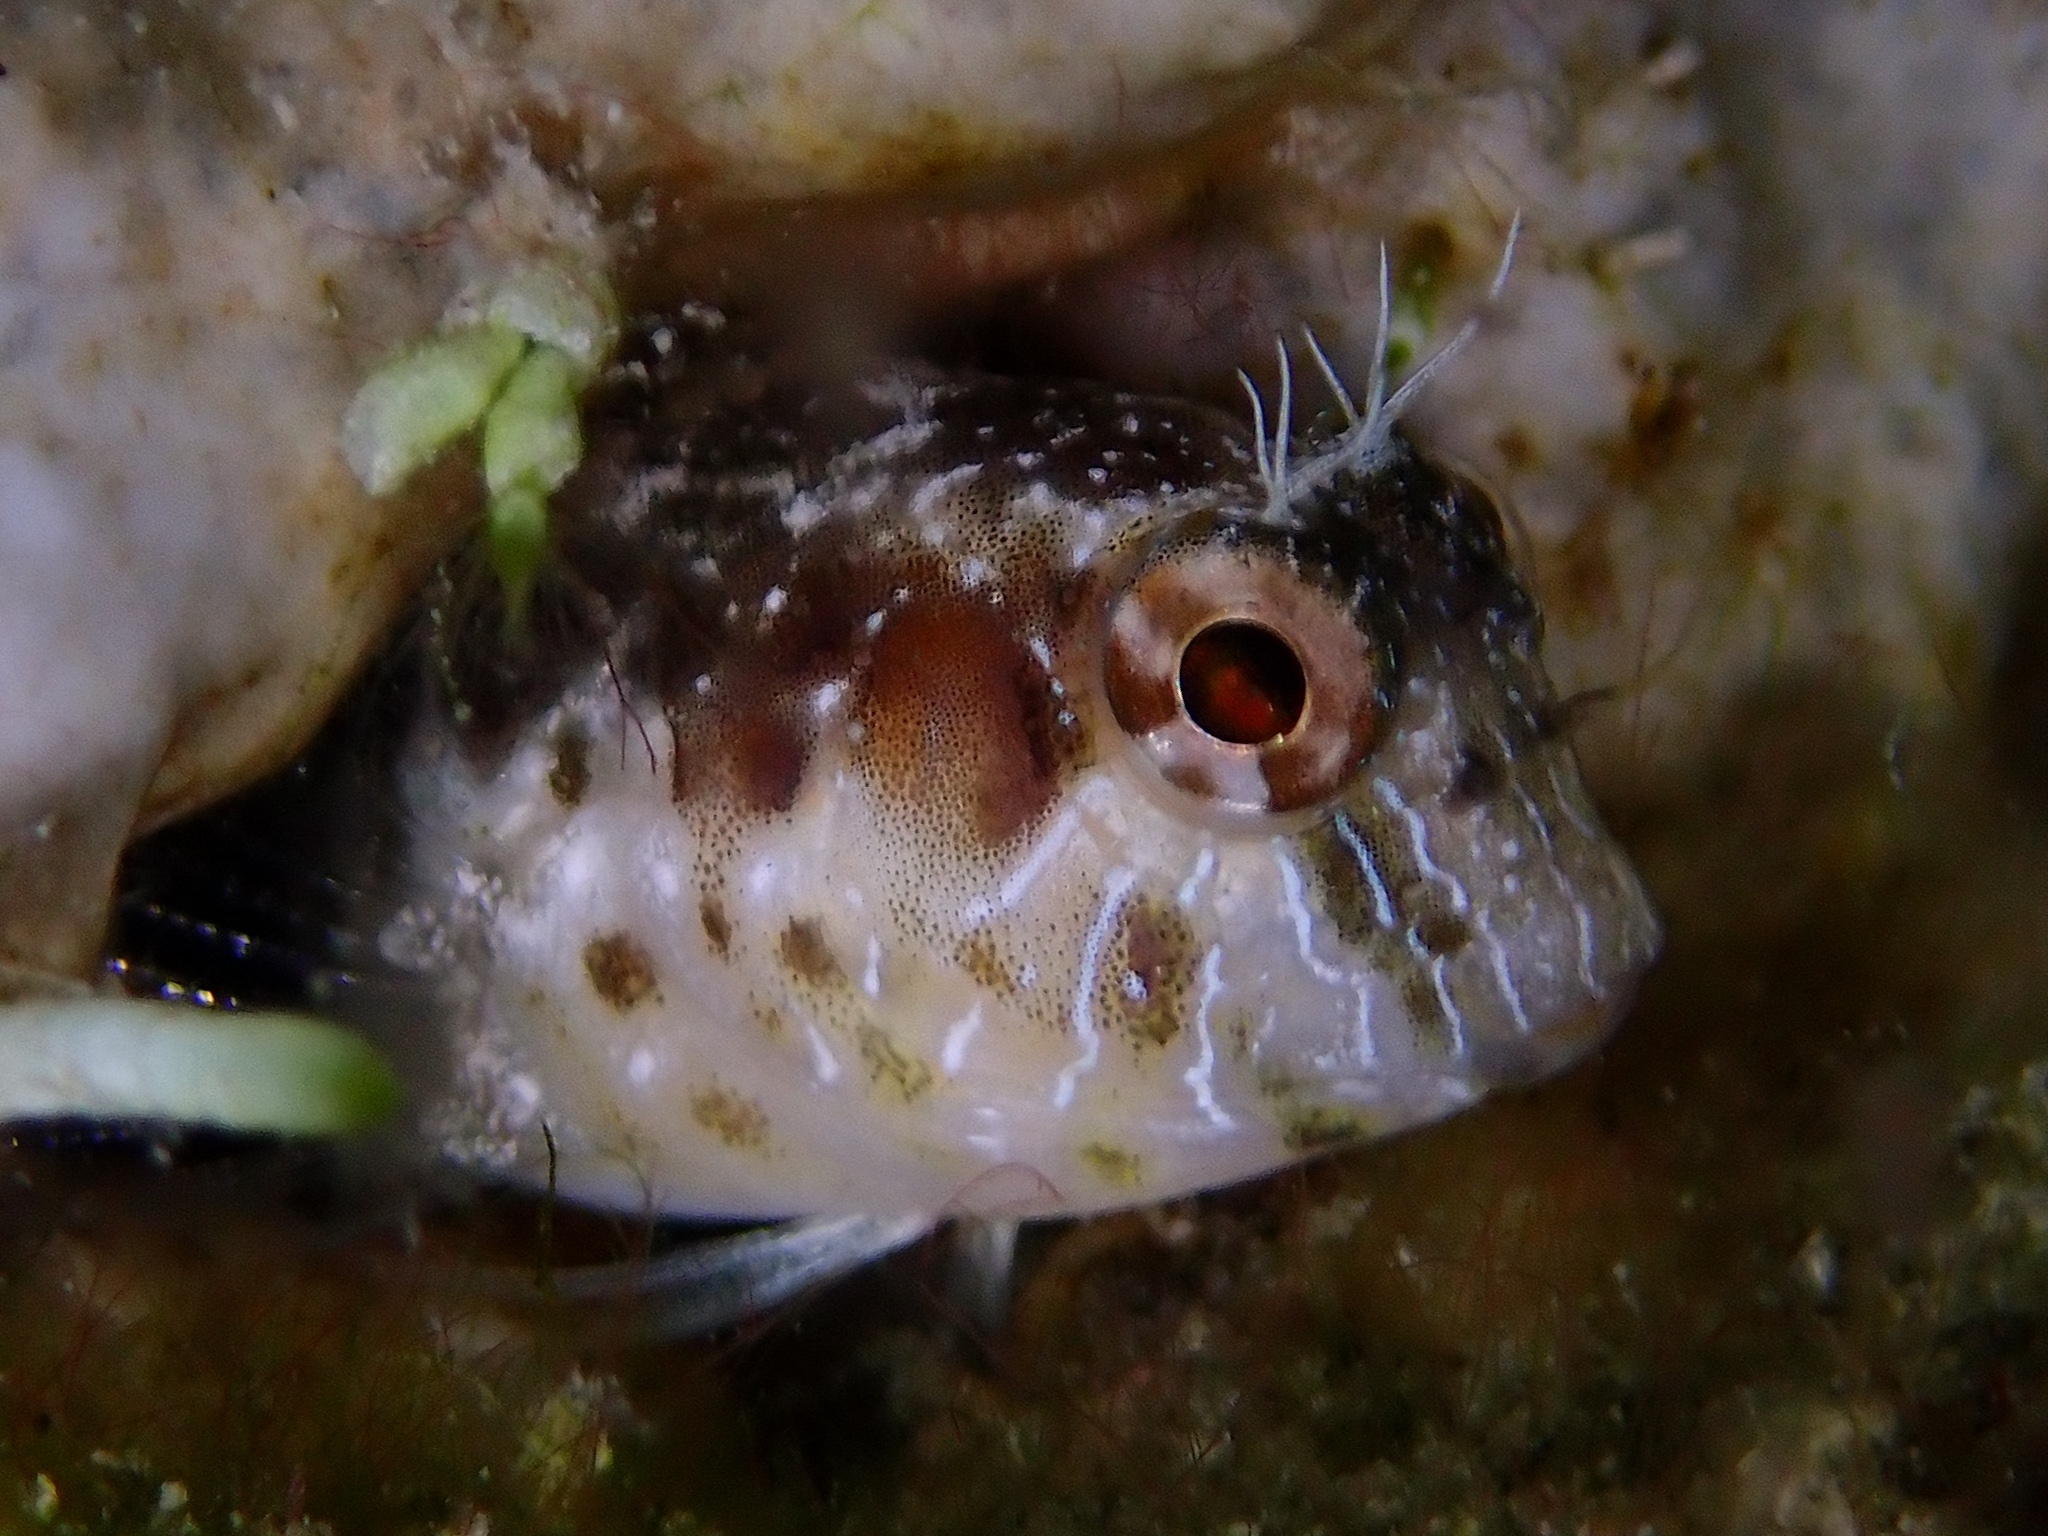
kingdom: Animalia
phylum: Chordata
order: Perciformes
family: Blenniidae
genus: Parablennius
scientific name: Parablennius marmoreus
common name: Seaweed blenny
